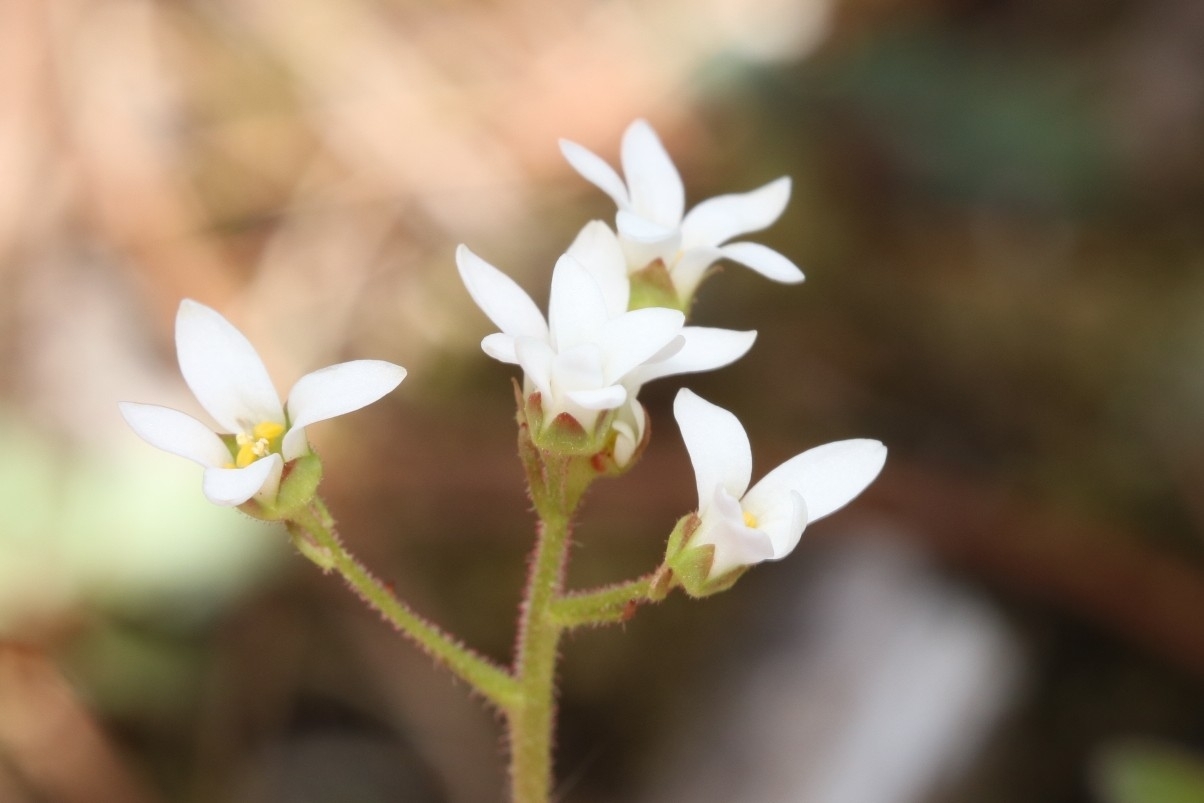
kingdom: Plantae
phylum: Tracheophyta
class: Magnoliopsida
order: Saxifragales
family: Saxifragaceae
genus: Micranthes
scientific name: Micranthes virginiensis
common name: Early saxifrage
